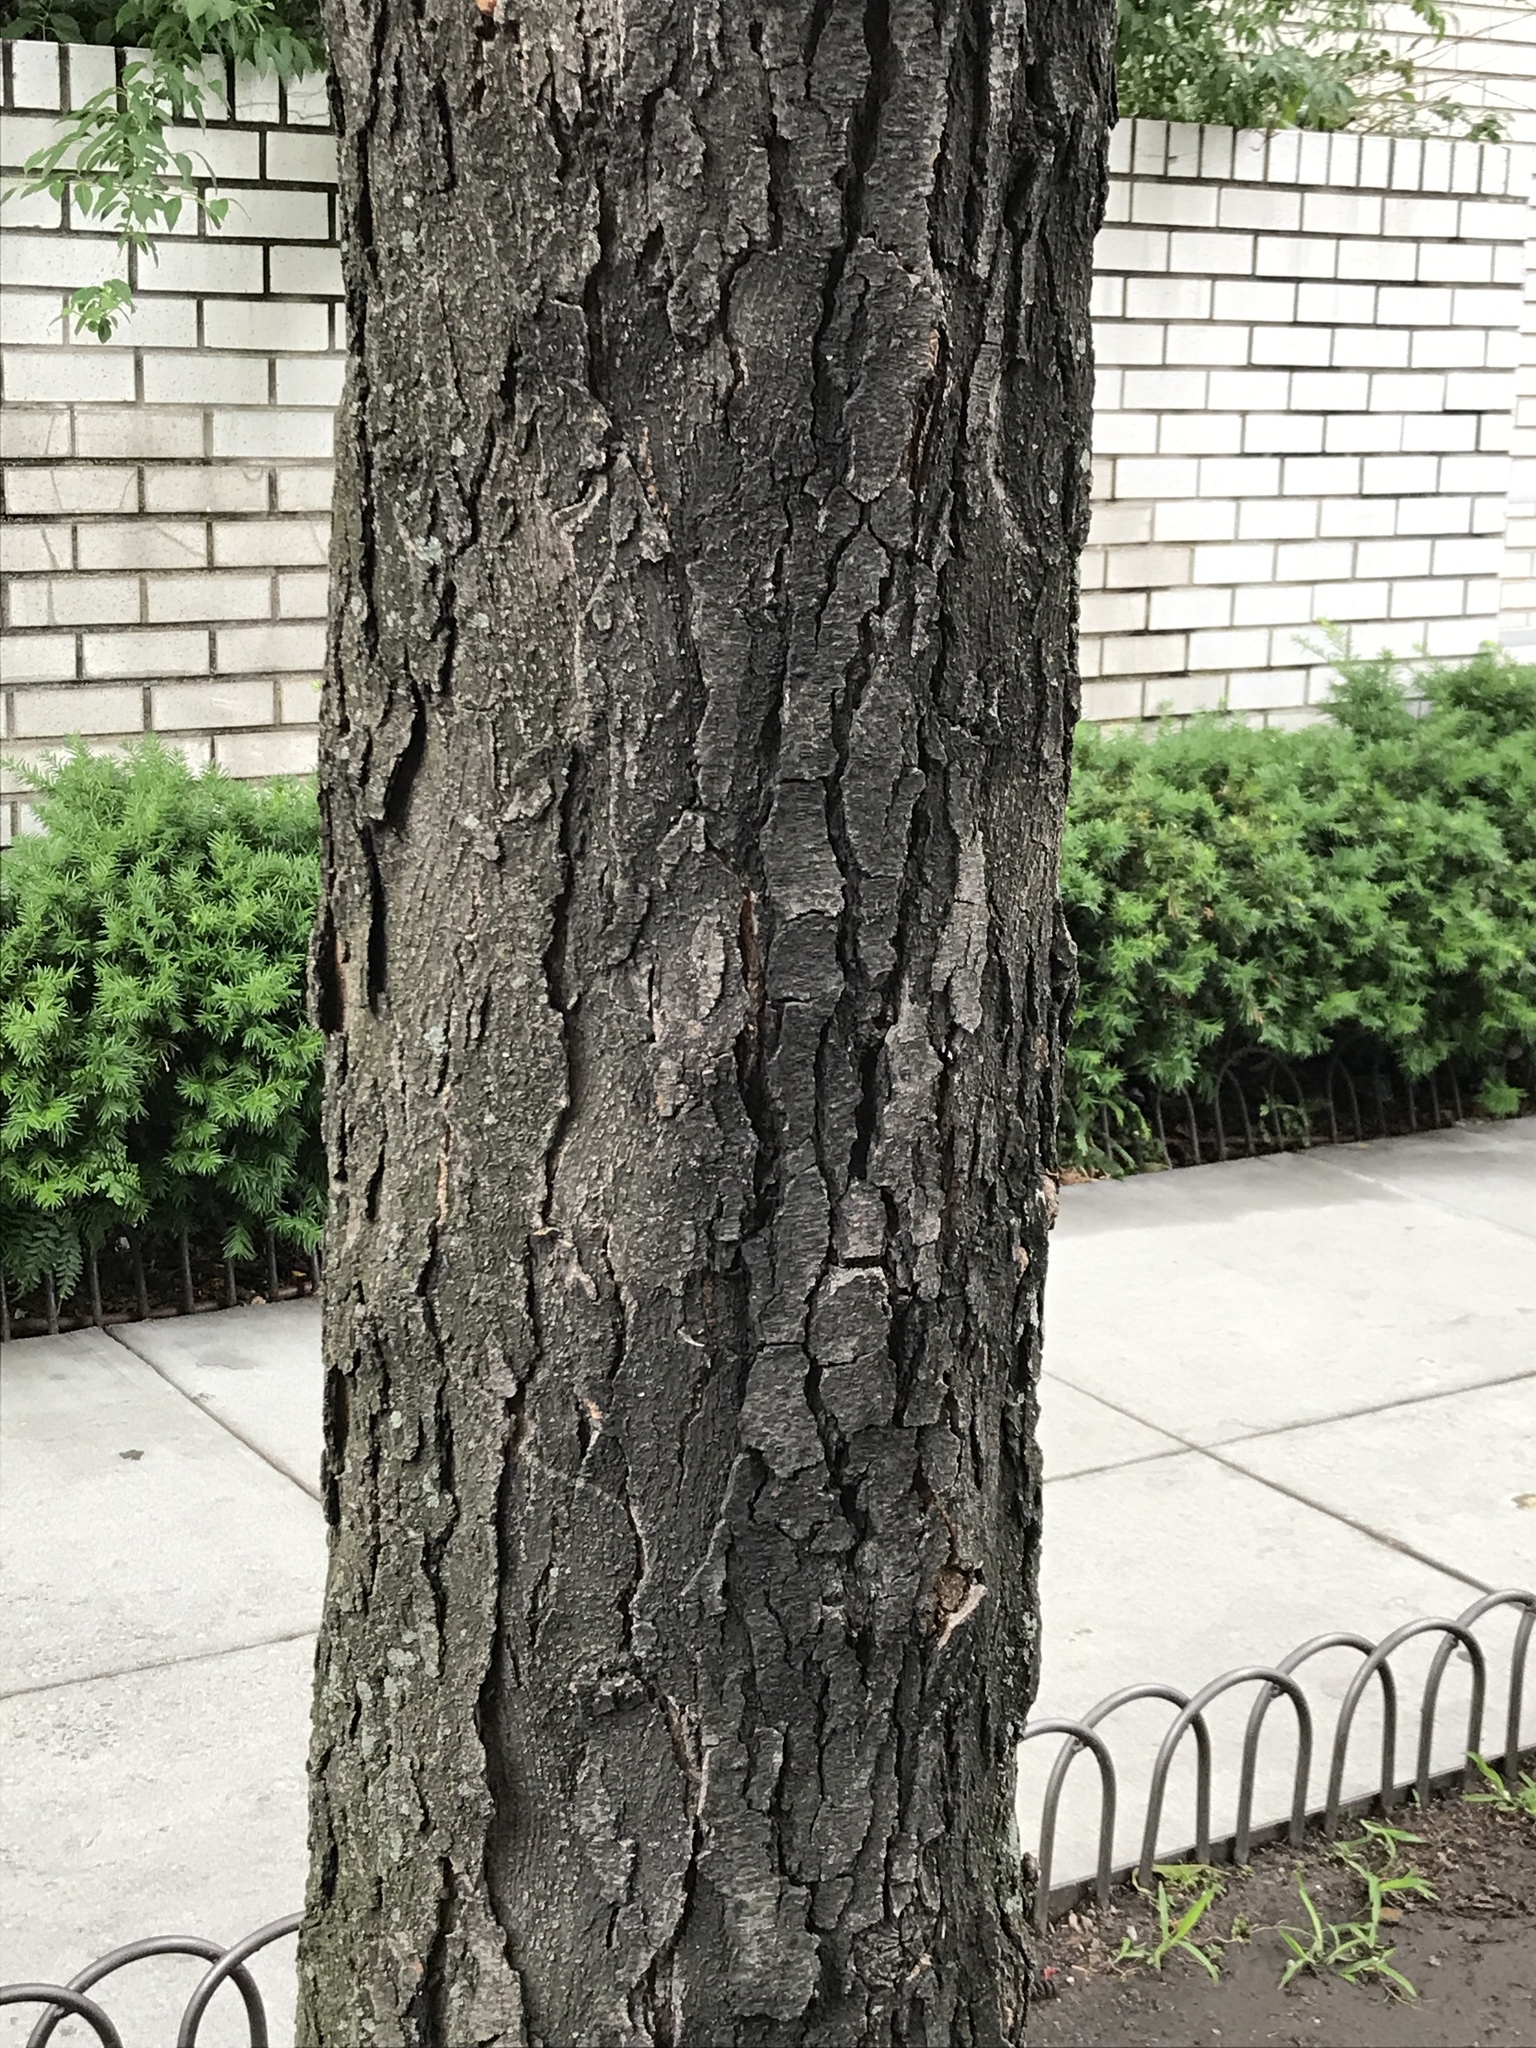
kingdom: Plantae
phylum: Tracheophyta
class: Magnoliopsida
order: Fabales
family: Fabaceae
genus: Gleditsia
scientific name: Gleditsia triacanthos
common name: Common honeylocust
